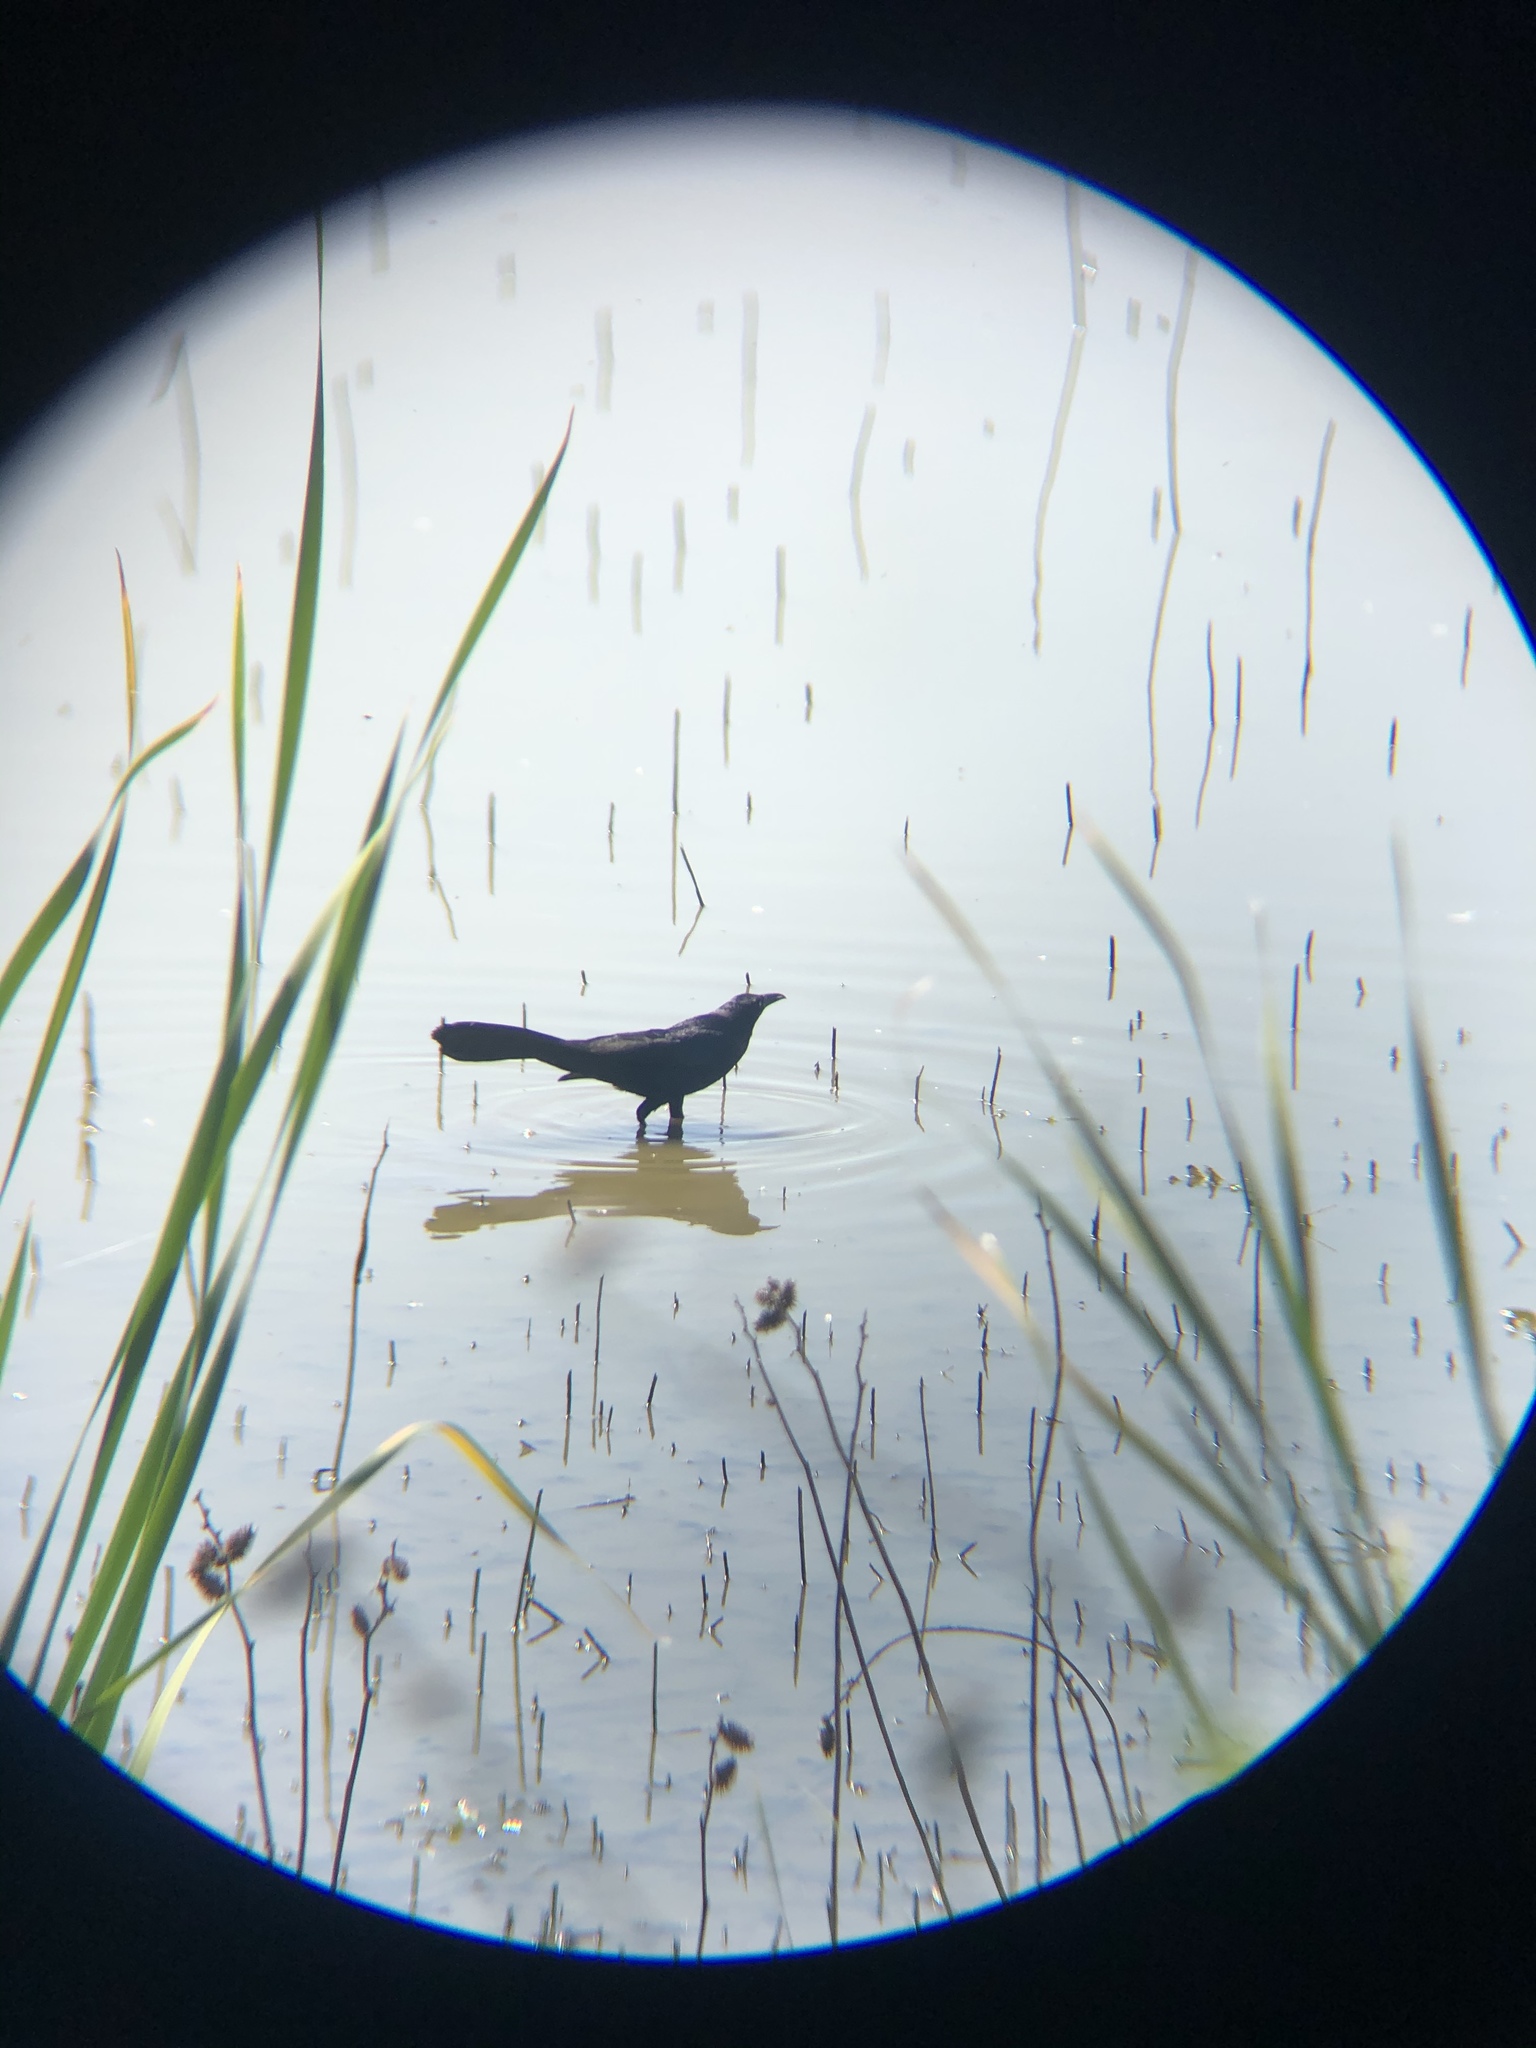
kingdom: Animalia
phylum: Chordata
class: Aves
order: Passeriformes
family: Icteridae
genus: Quiscalus
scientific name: Quiscalus mexicanus
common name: Great-tailed grackle
